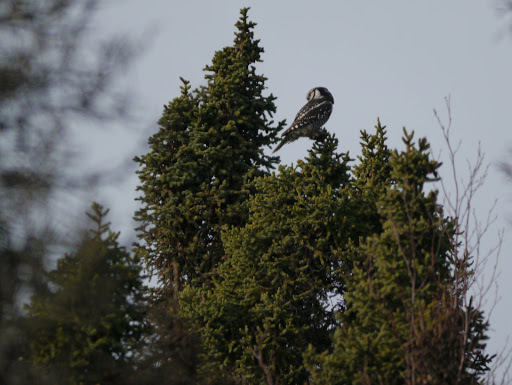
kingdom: Animalia
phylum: Chordata
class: Aves
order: Strigiformes
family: Strigidae
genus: Surnia
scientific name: Surnia ulula
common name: Northern hawk-owl
